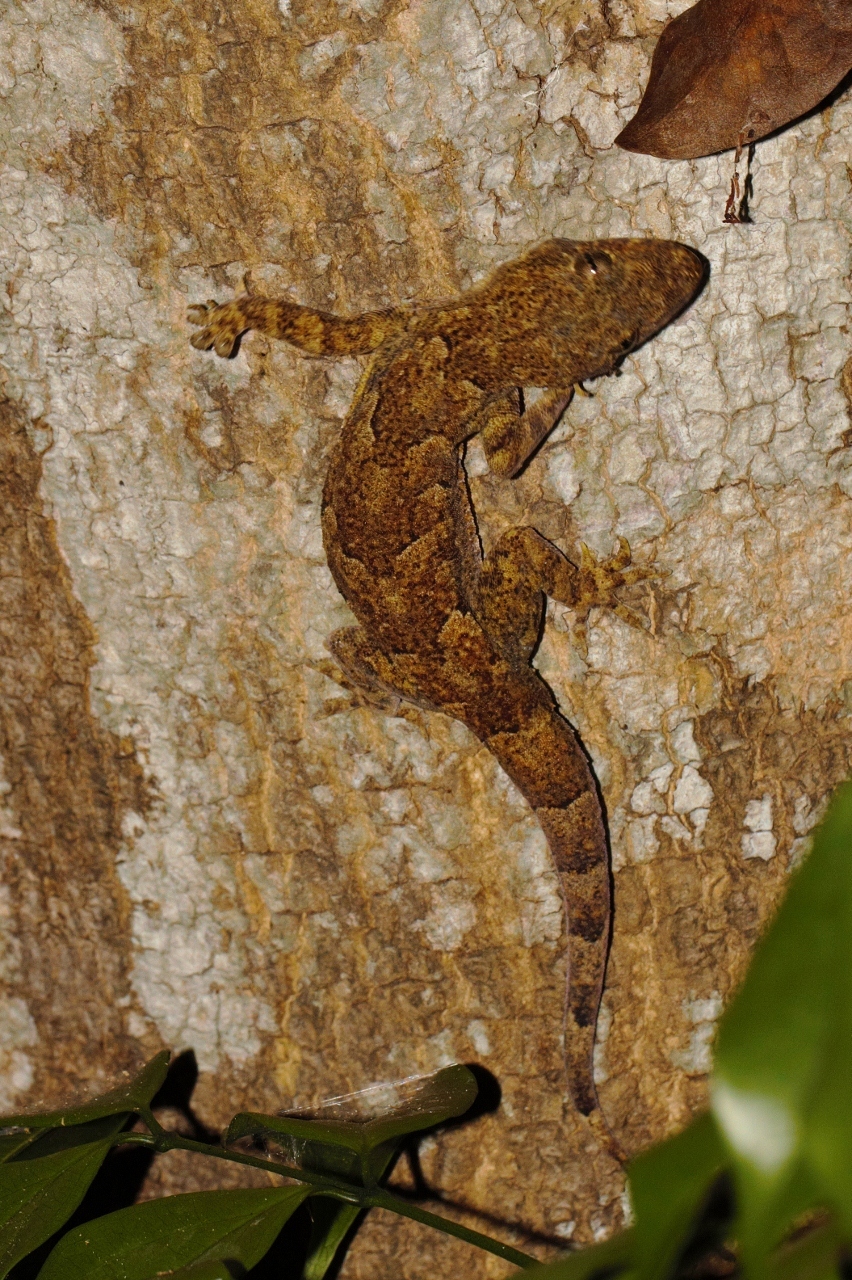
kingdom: Animalia
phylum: Chordata
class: Squamata
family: Gekkonidae
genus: Hemidactylus
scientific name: Hemidactylus platycephalus
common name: Baobab gecko
